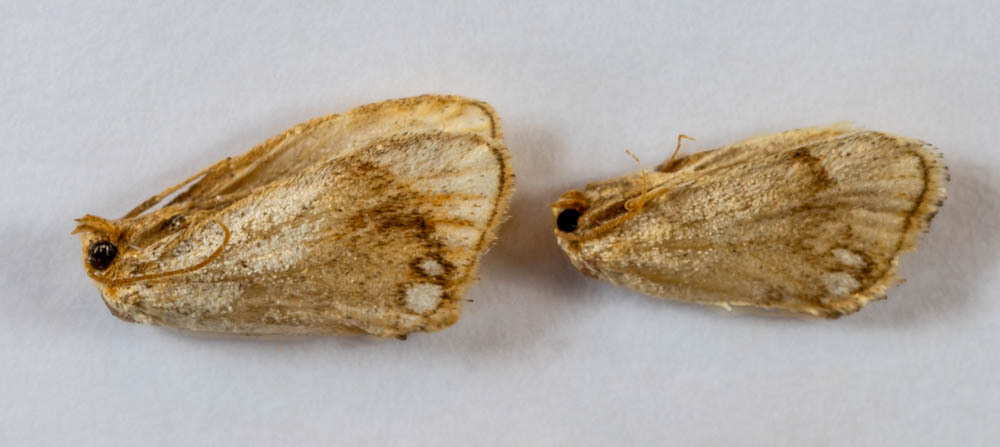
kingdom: Animalia
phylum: Arthropoda
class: Insecta
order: Lepidoptera
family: Limacodidae
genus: Packardia
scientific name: Packardia geminata
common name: Jeweled tailed slug moth
